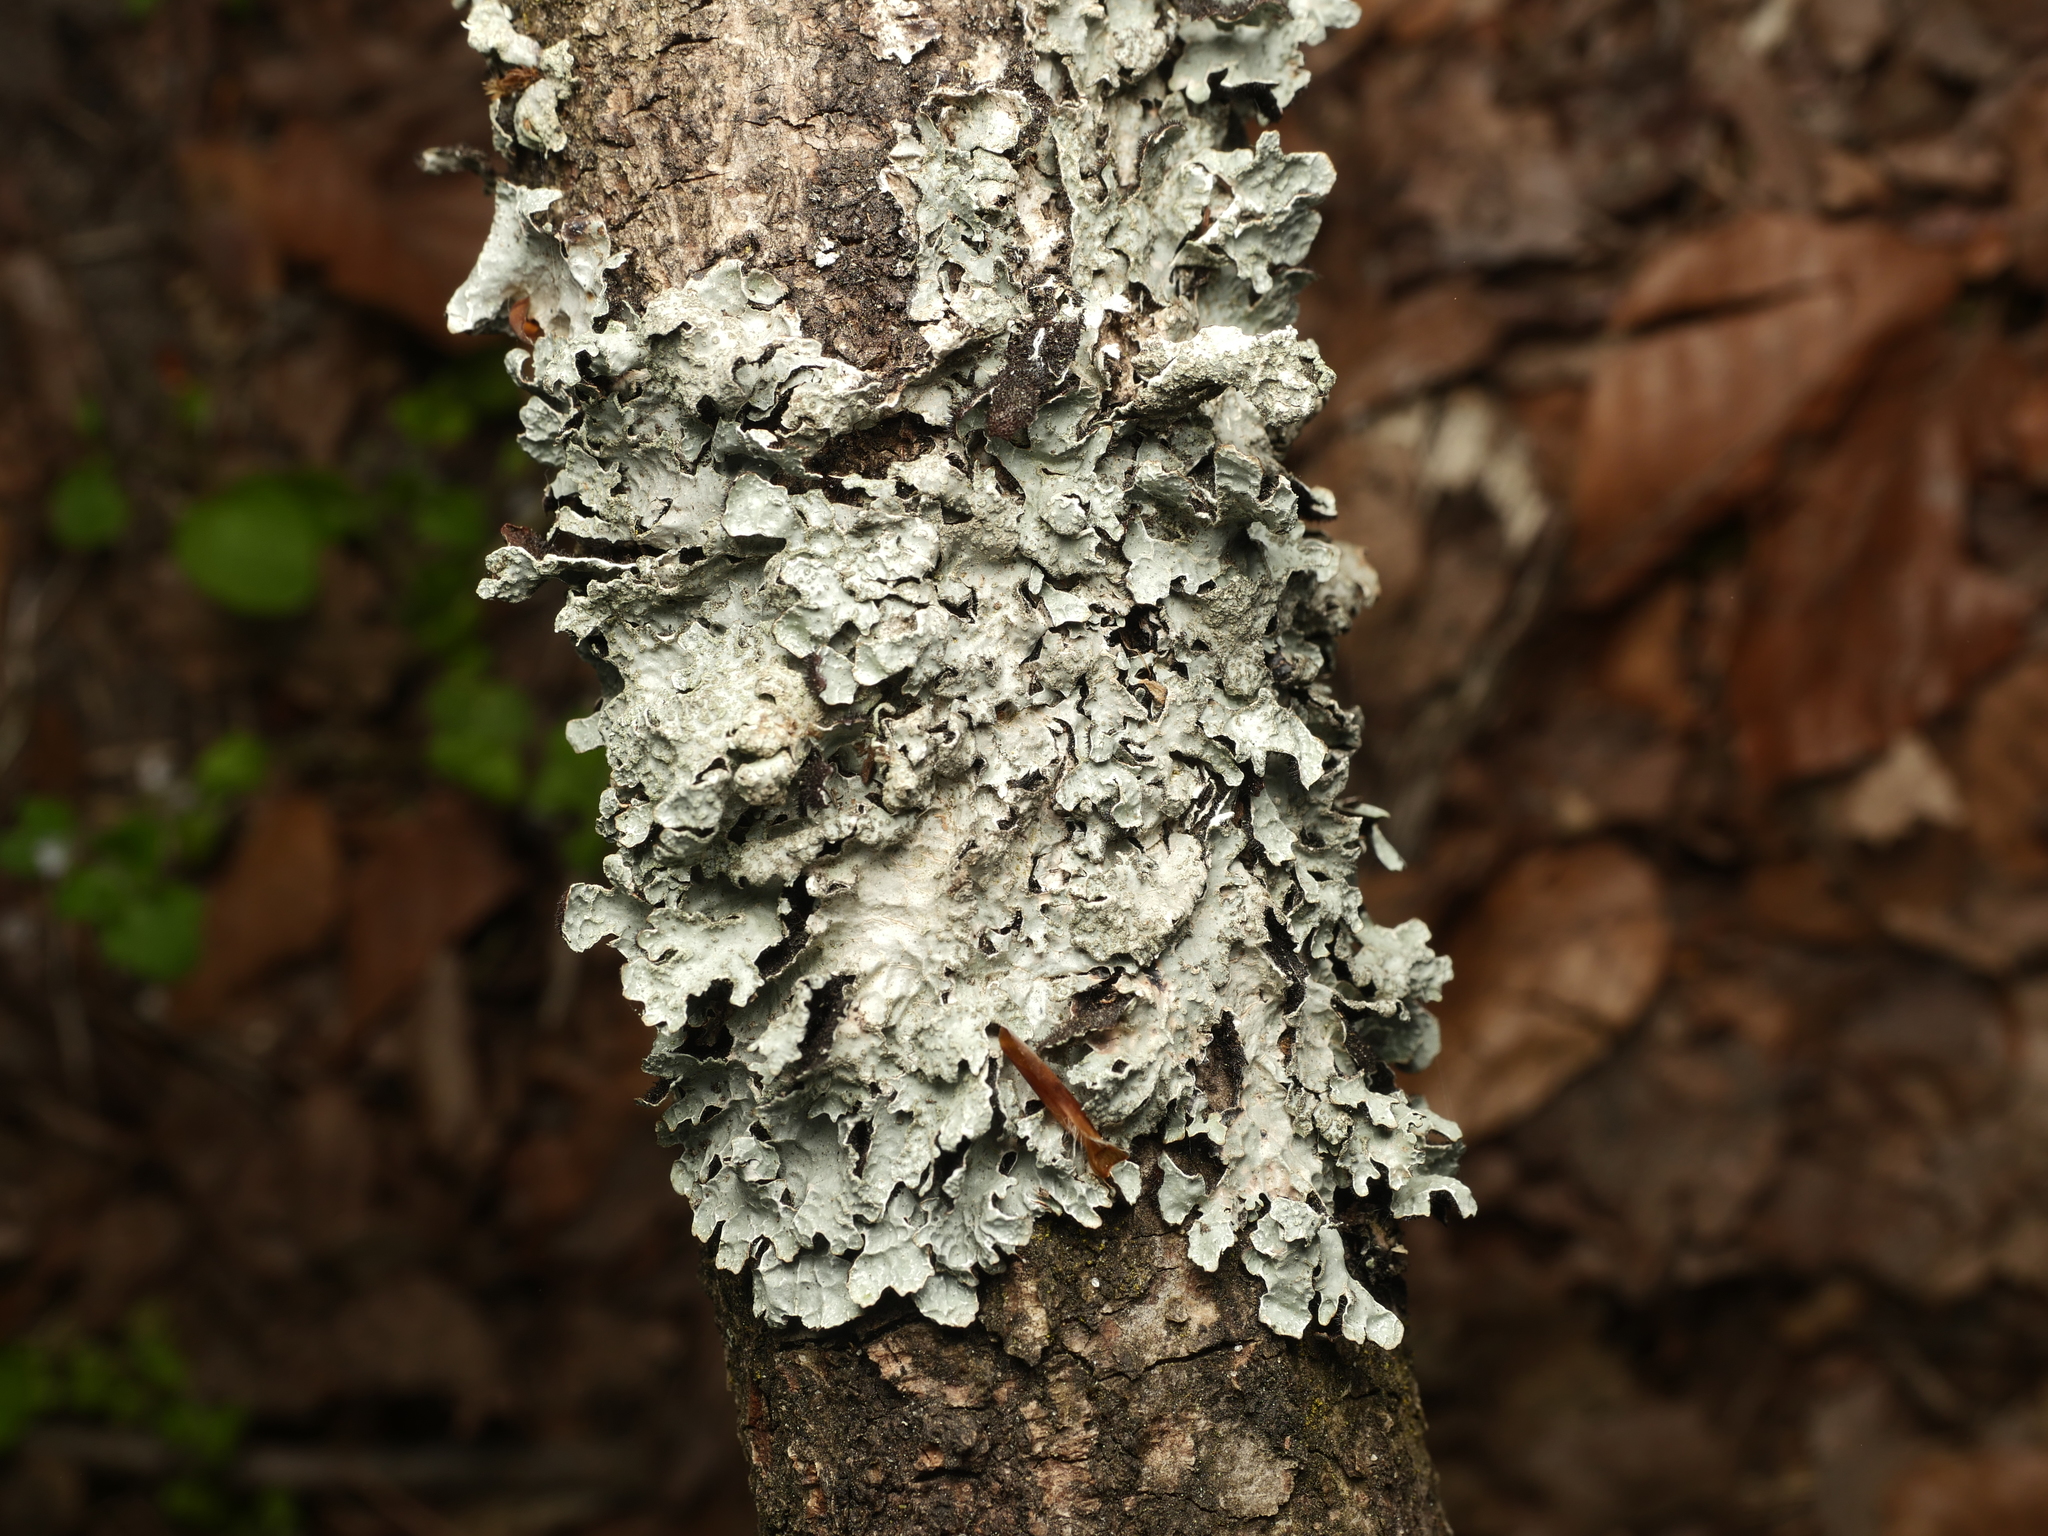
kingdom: Fungi
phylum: Ascomycota
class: Lecanoromycetes
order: Lecanorales
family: Parmeliaceae
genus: Parmelia
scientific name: Parmelia sulcata
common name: Netted shield lichen
